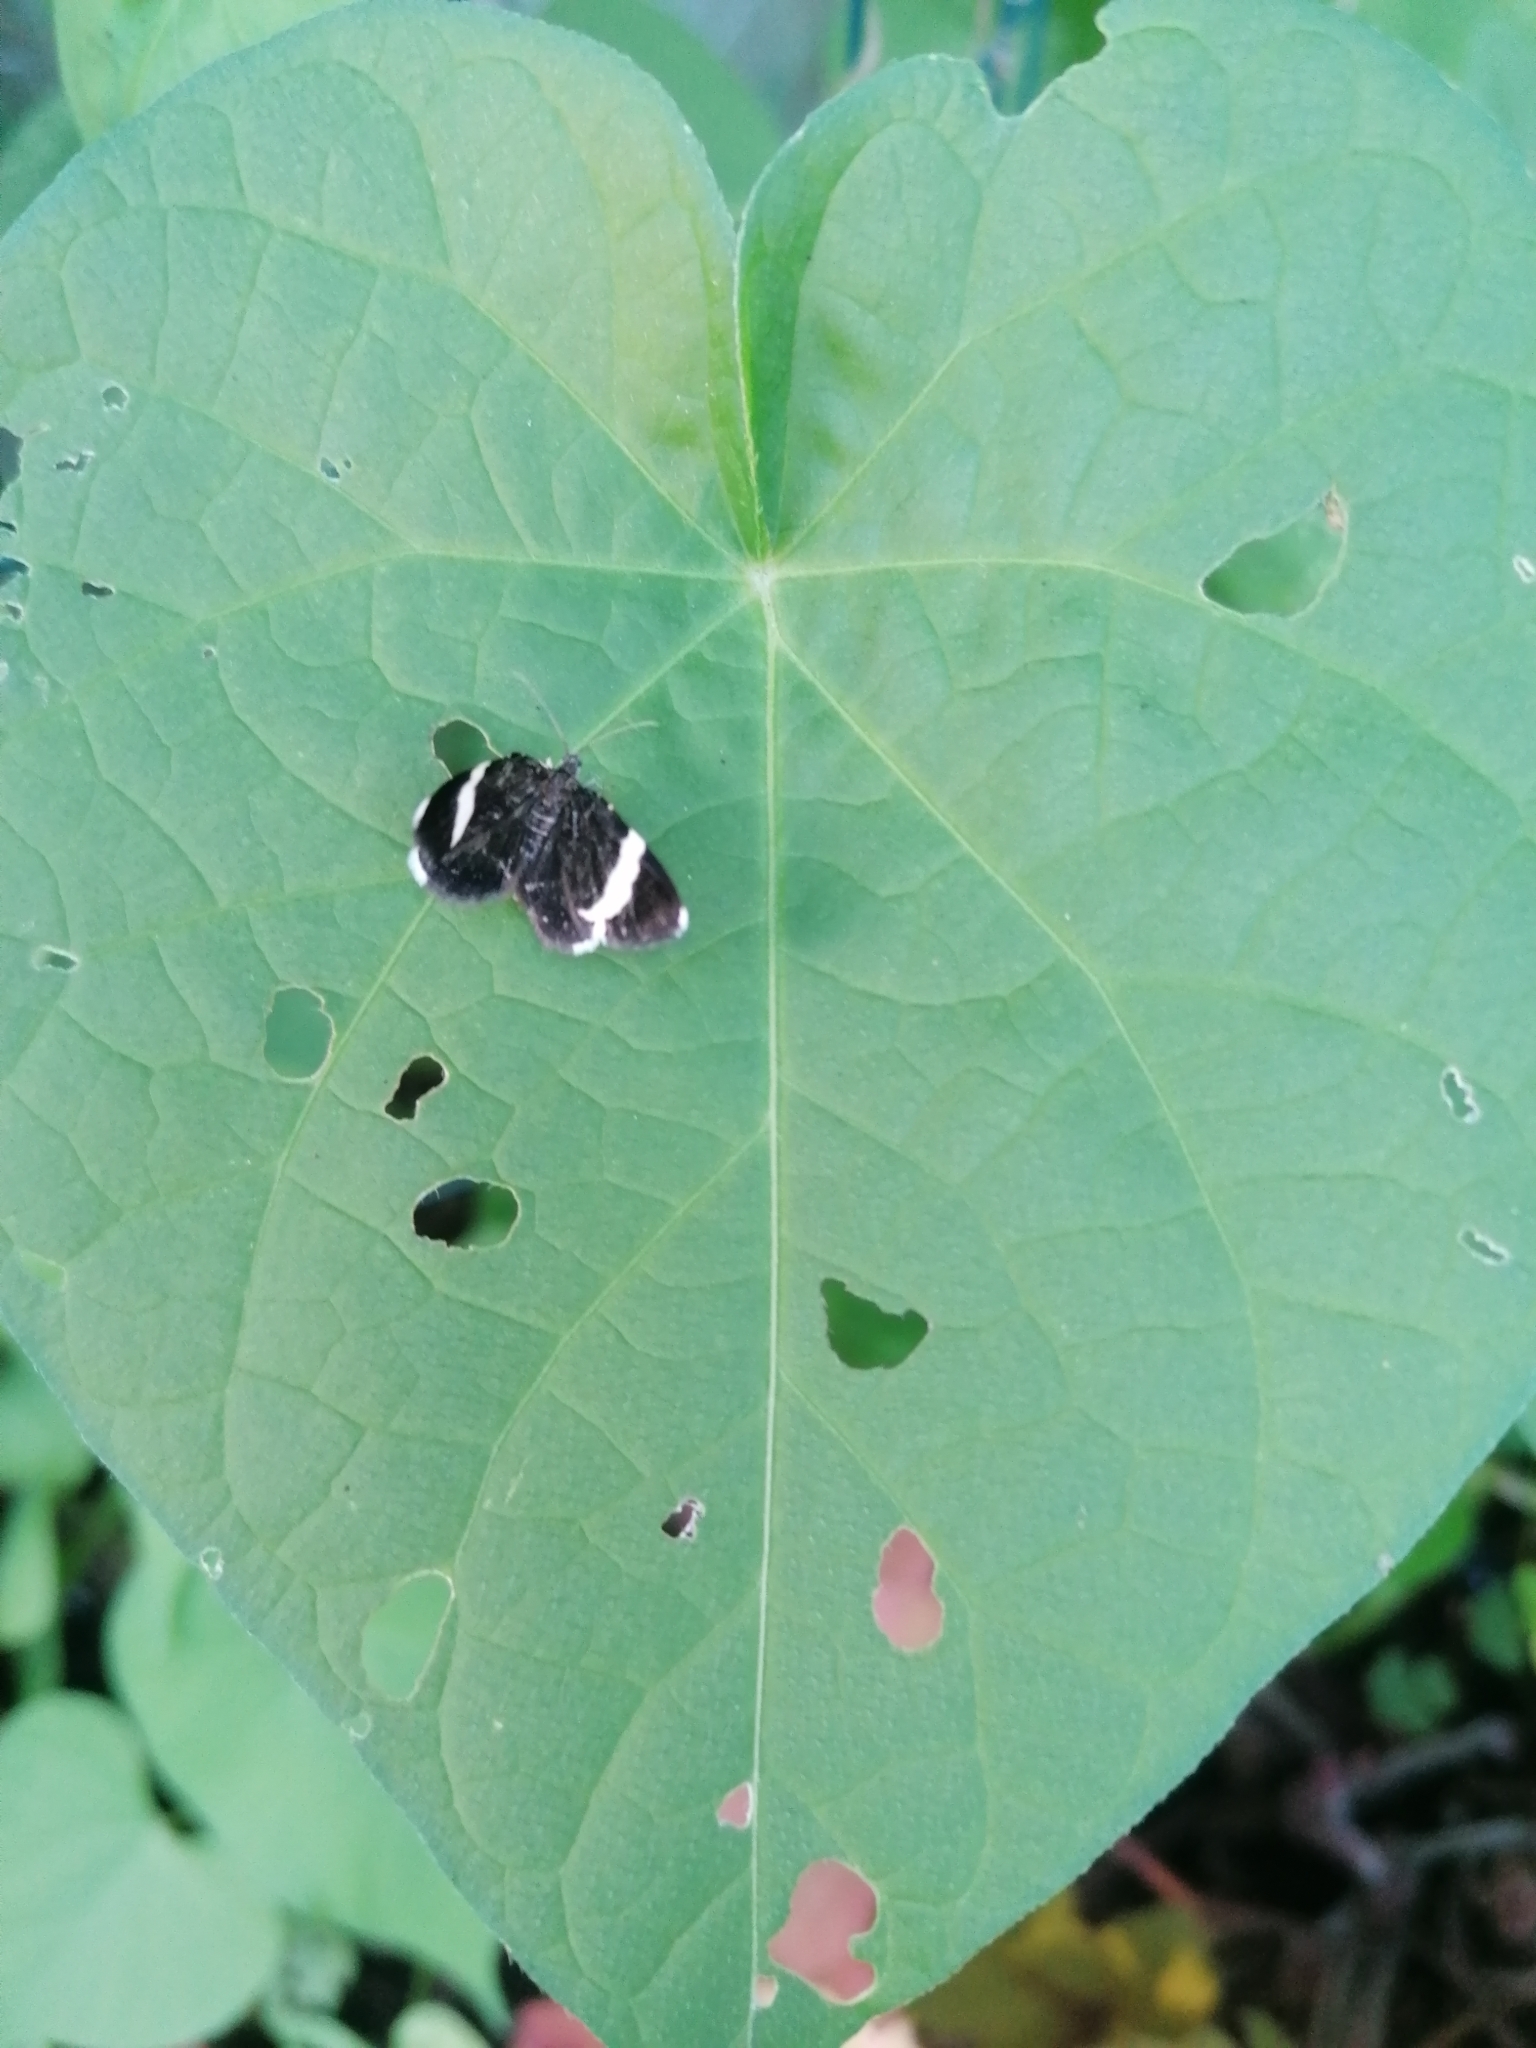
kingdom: Animalia
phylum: Arthropoda
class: Insecta
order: Lepidoptera
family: Geometridae
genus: Trichodezia
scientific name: Trichodezia albovittata
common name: White striped black
